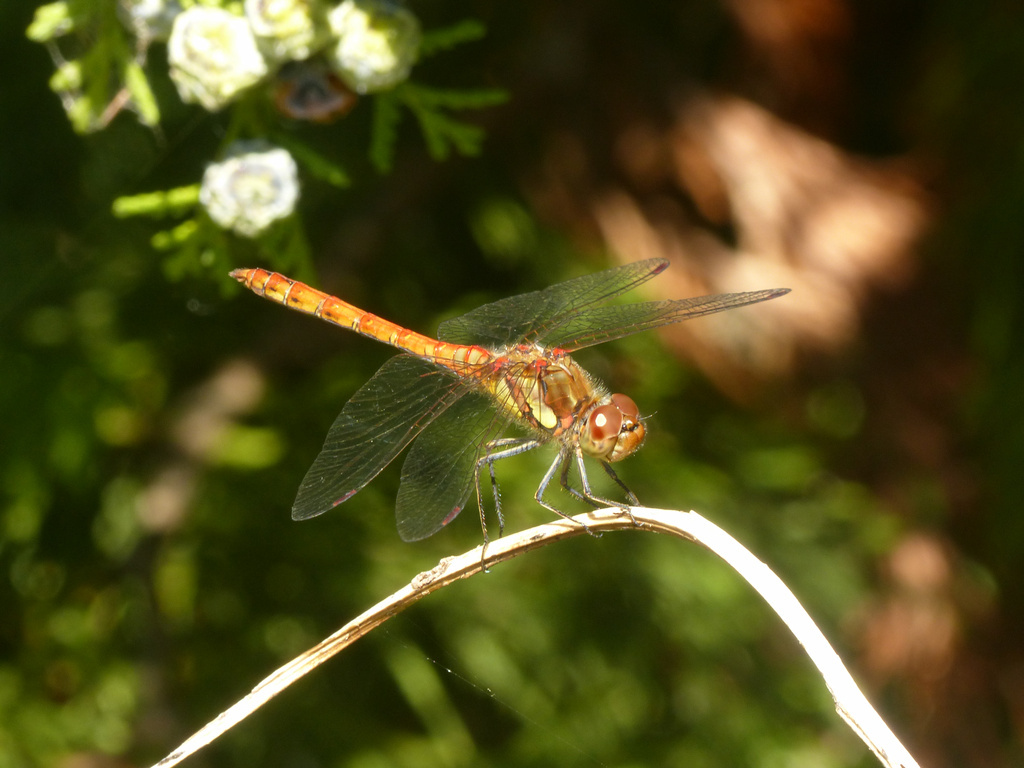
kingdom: Animalia
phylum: Arthropoda
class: Insecta
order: Odonata
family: Libellulidae
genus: Sympetrum
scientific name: Sympetrum striolatum
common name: Common darter
